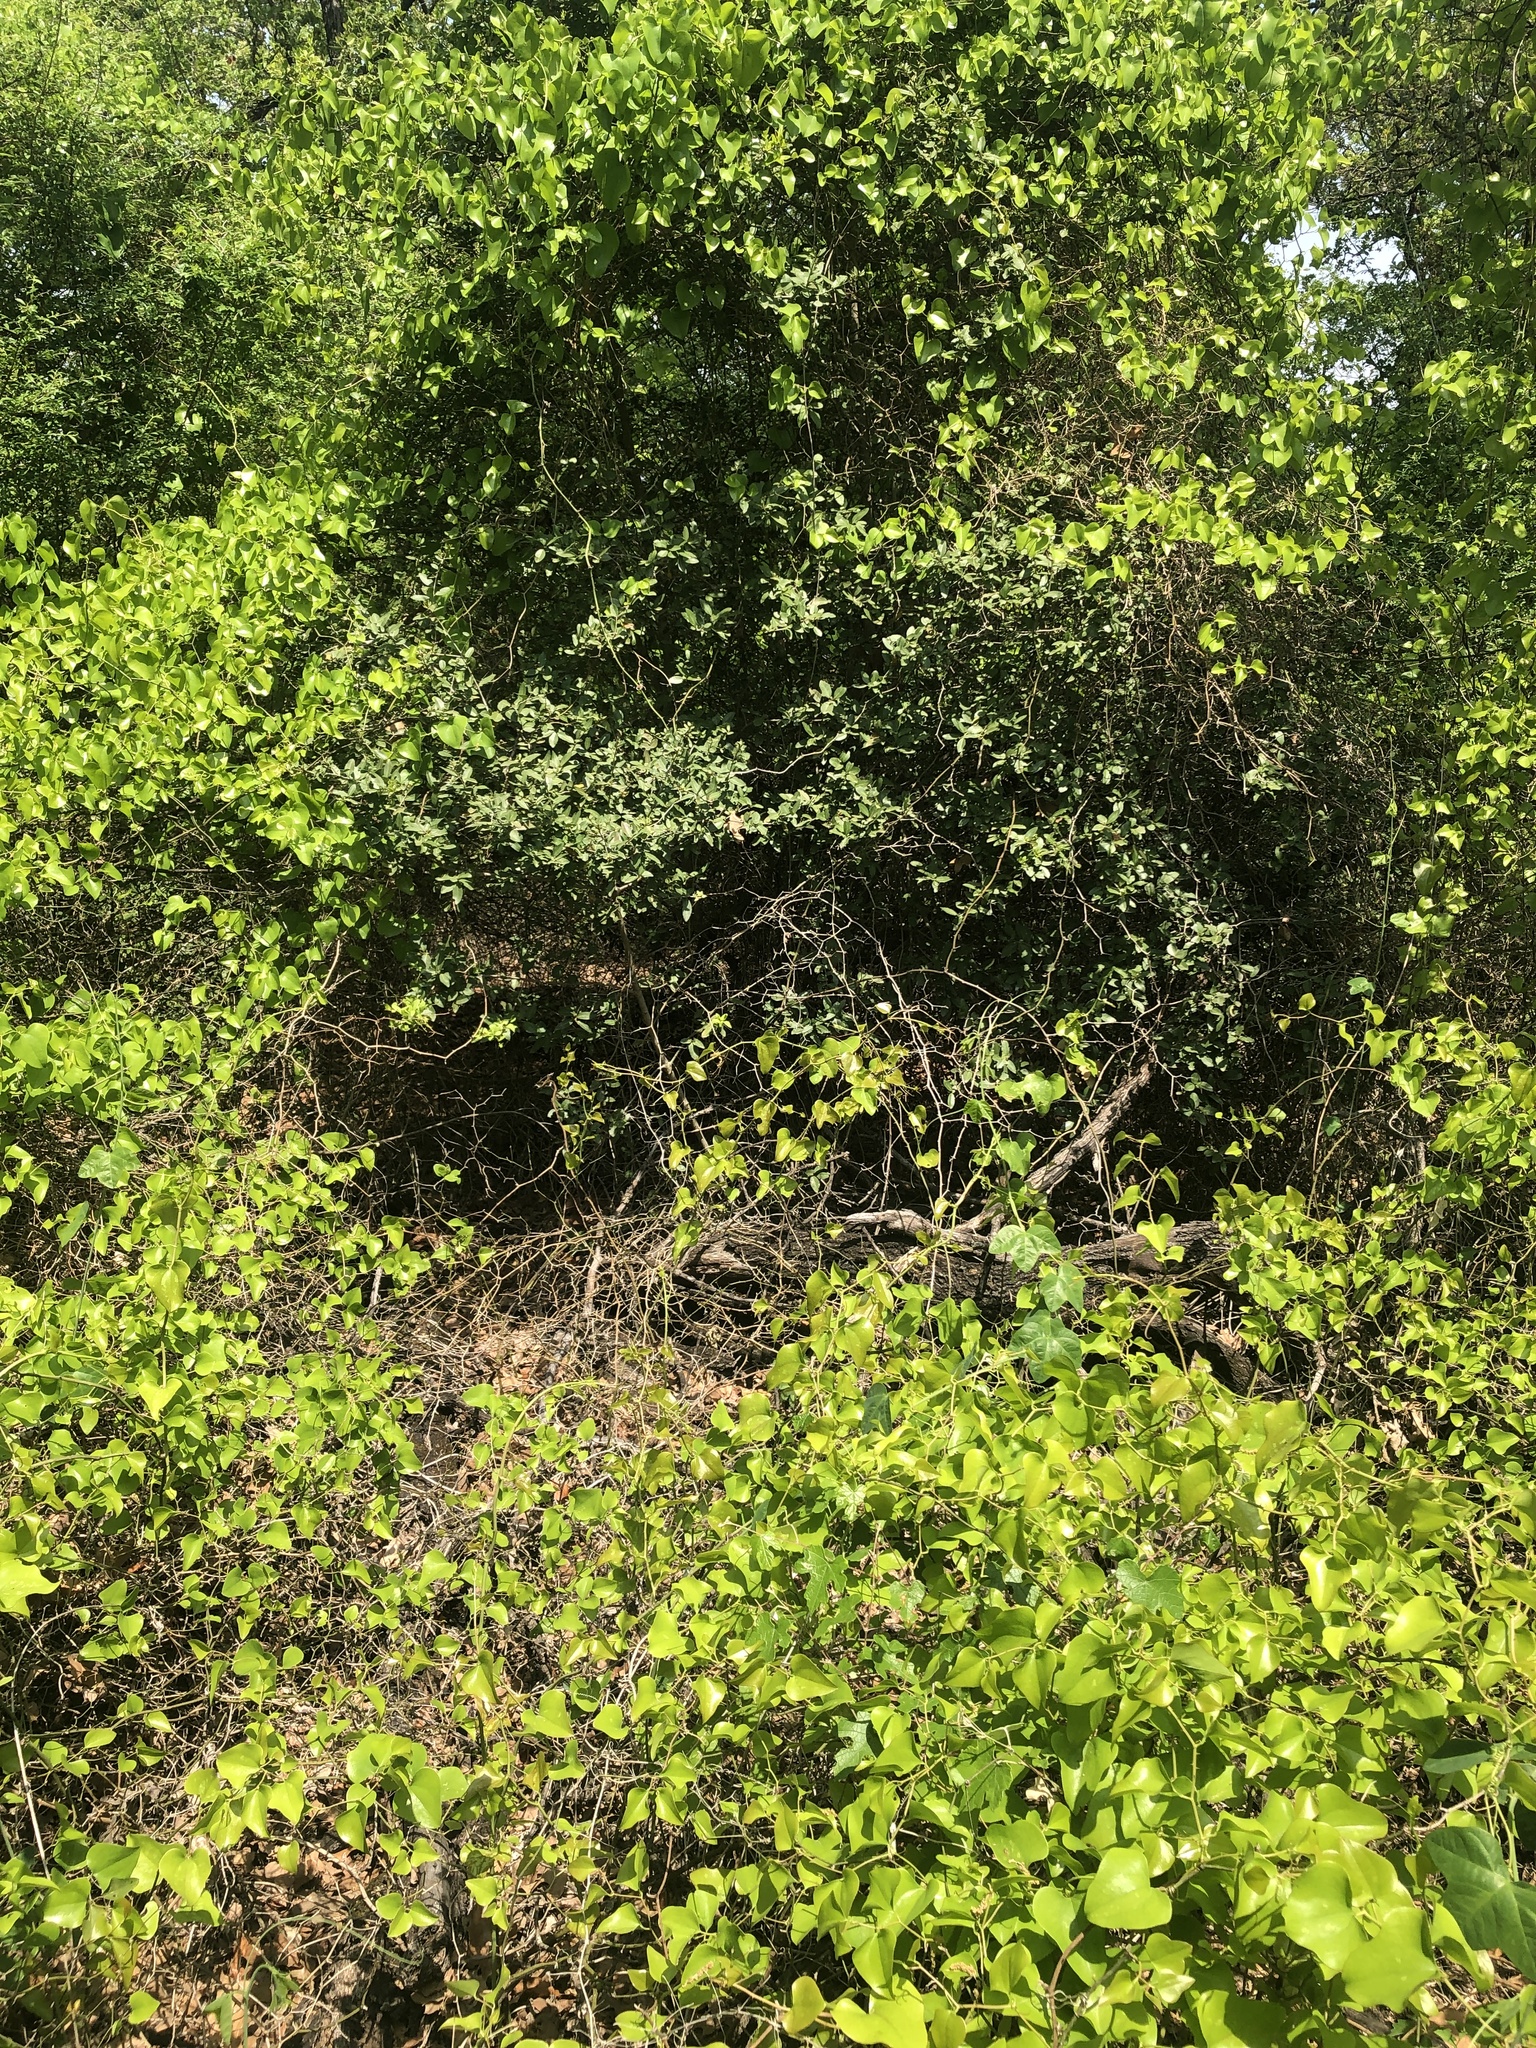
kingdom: Animalia
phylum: Chordata
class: Aves
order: Passeriformes
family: Passerellidae
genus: Zonotrichia
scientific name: Zonotrichia albicollis
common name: White-throated sparrow
